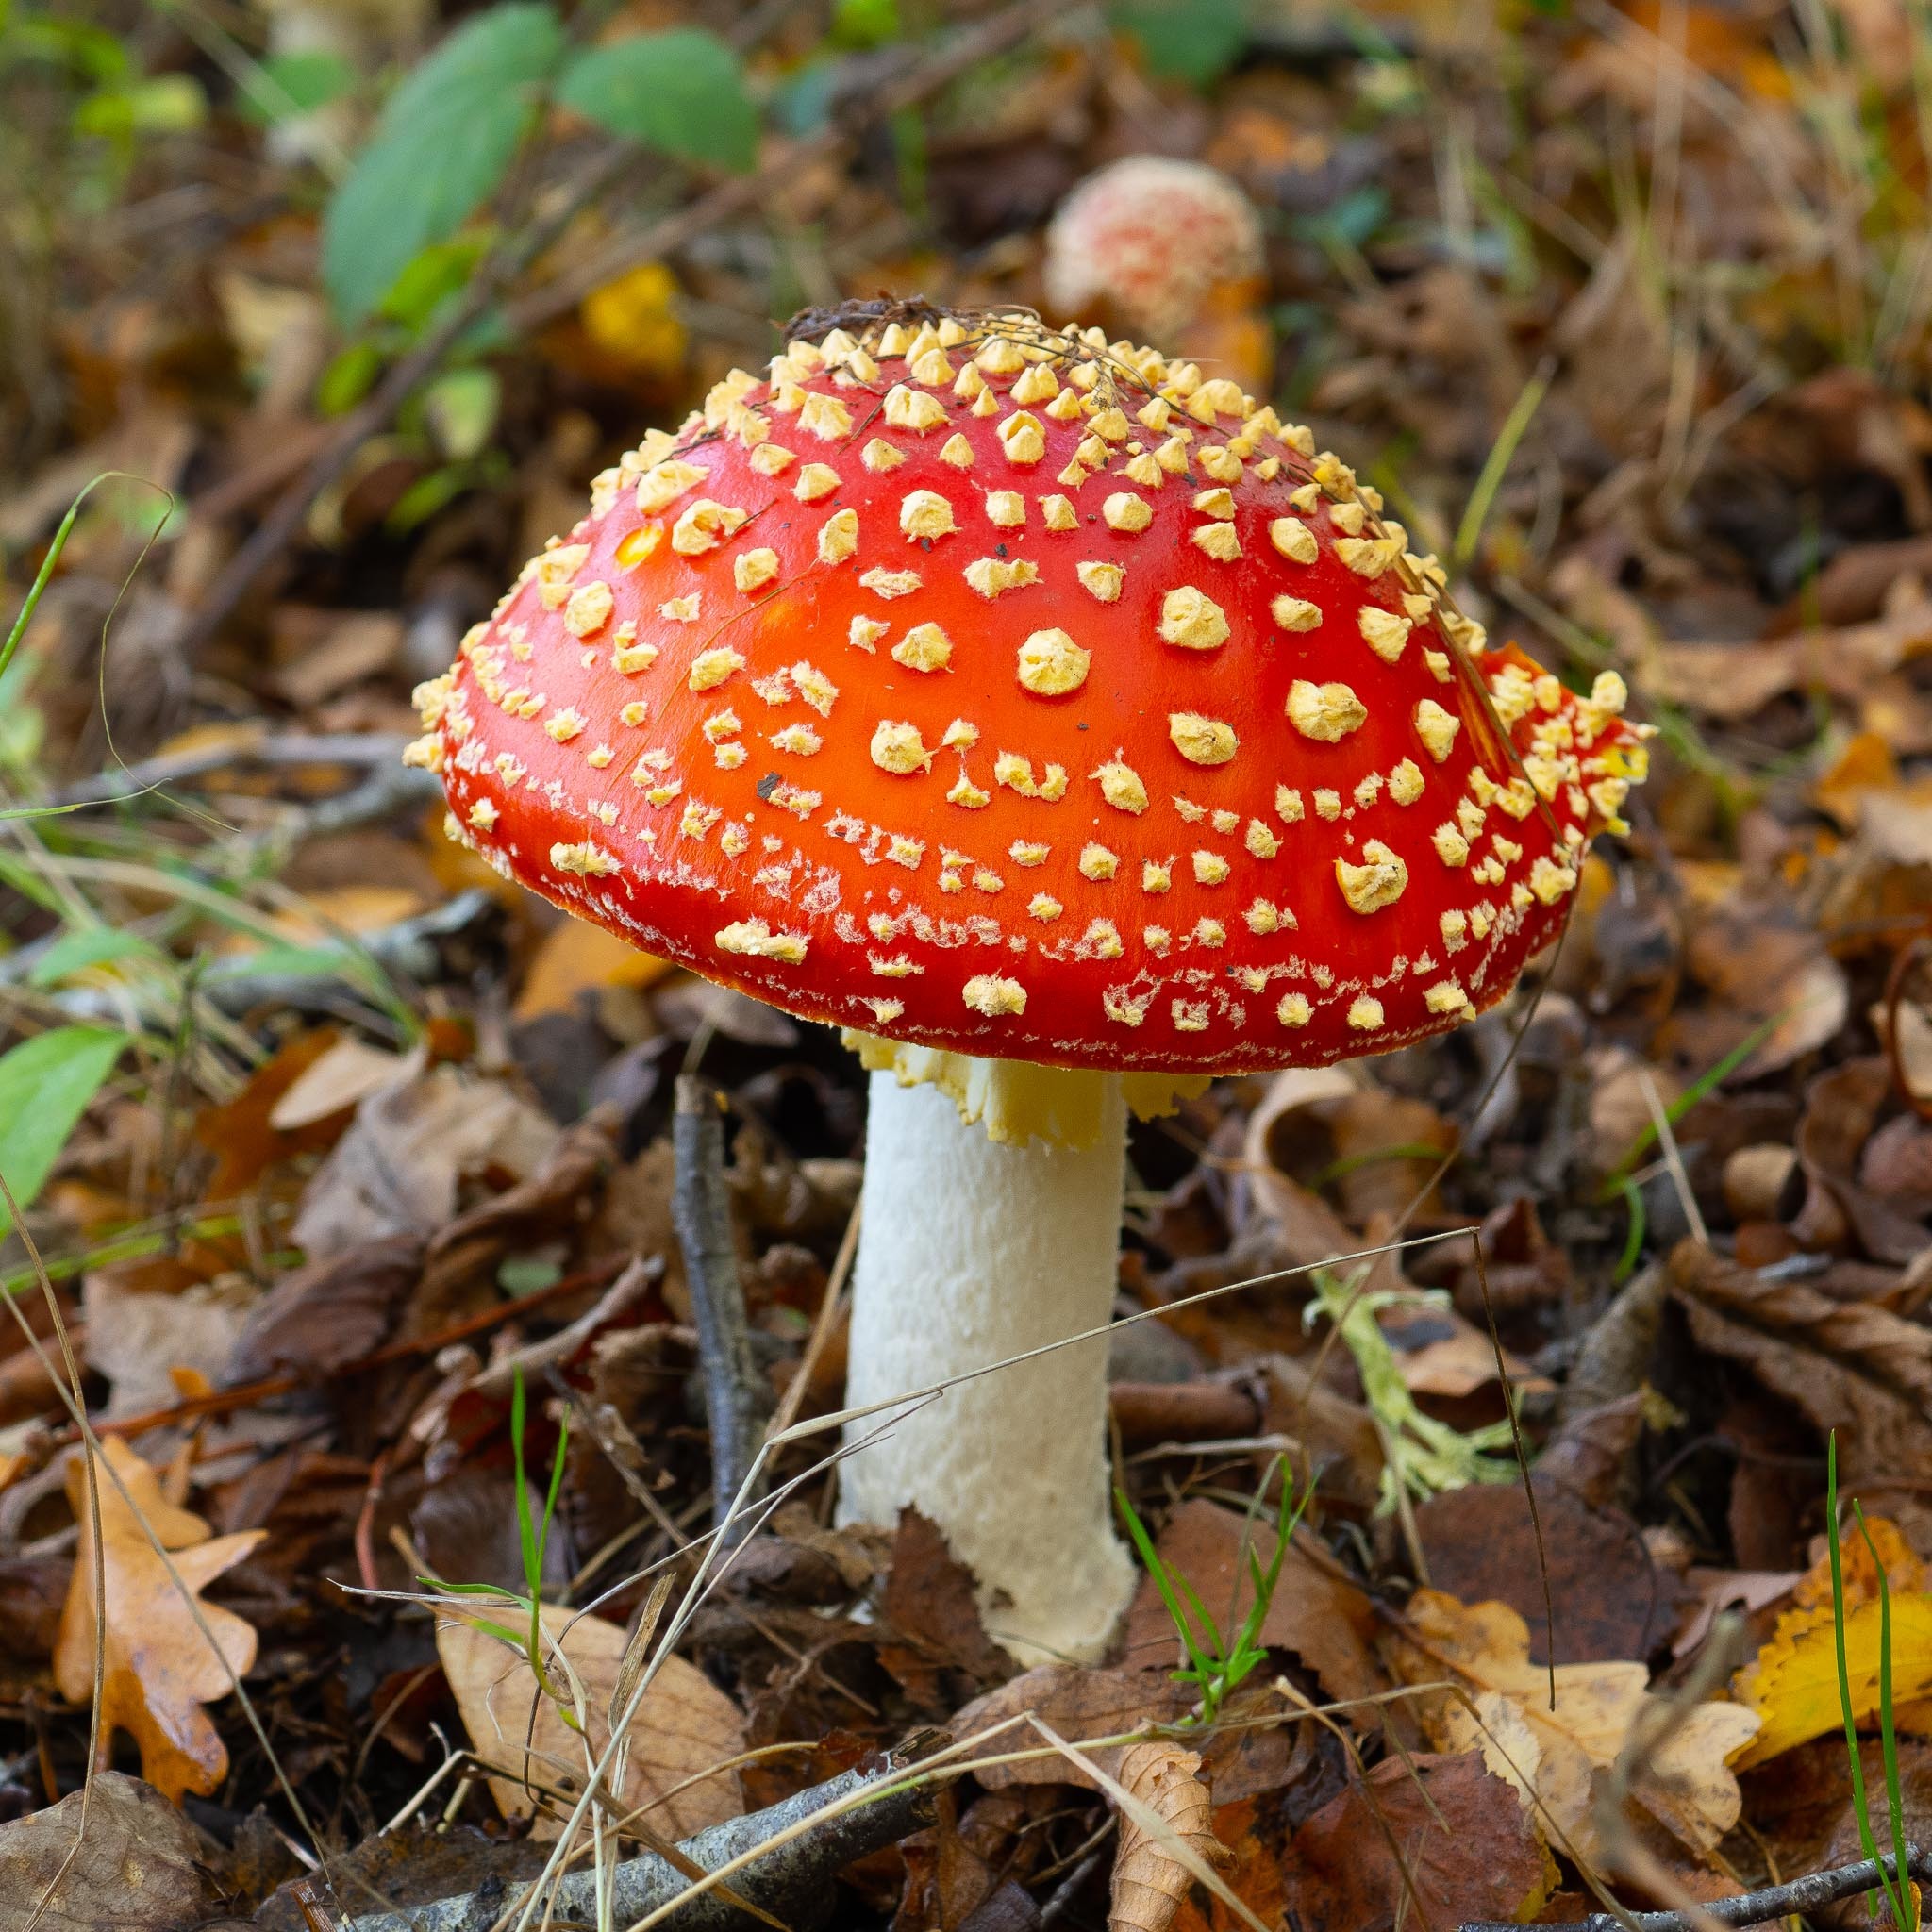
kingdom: Fungi
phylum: Basidiomycota
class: Agaricomycetes
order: Agaricales
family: Amanitaceae
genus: Amanita
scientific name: Amanita muscaria
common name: Fly agaric
